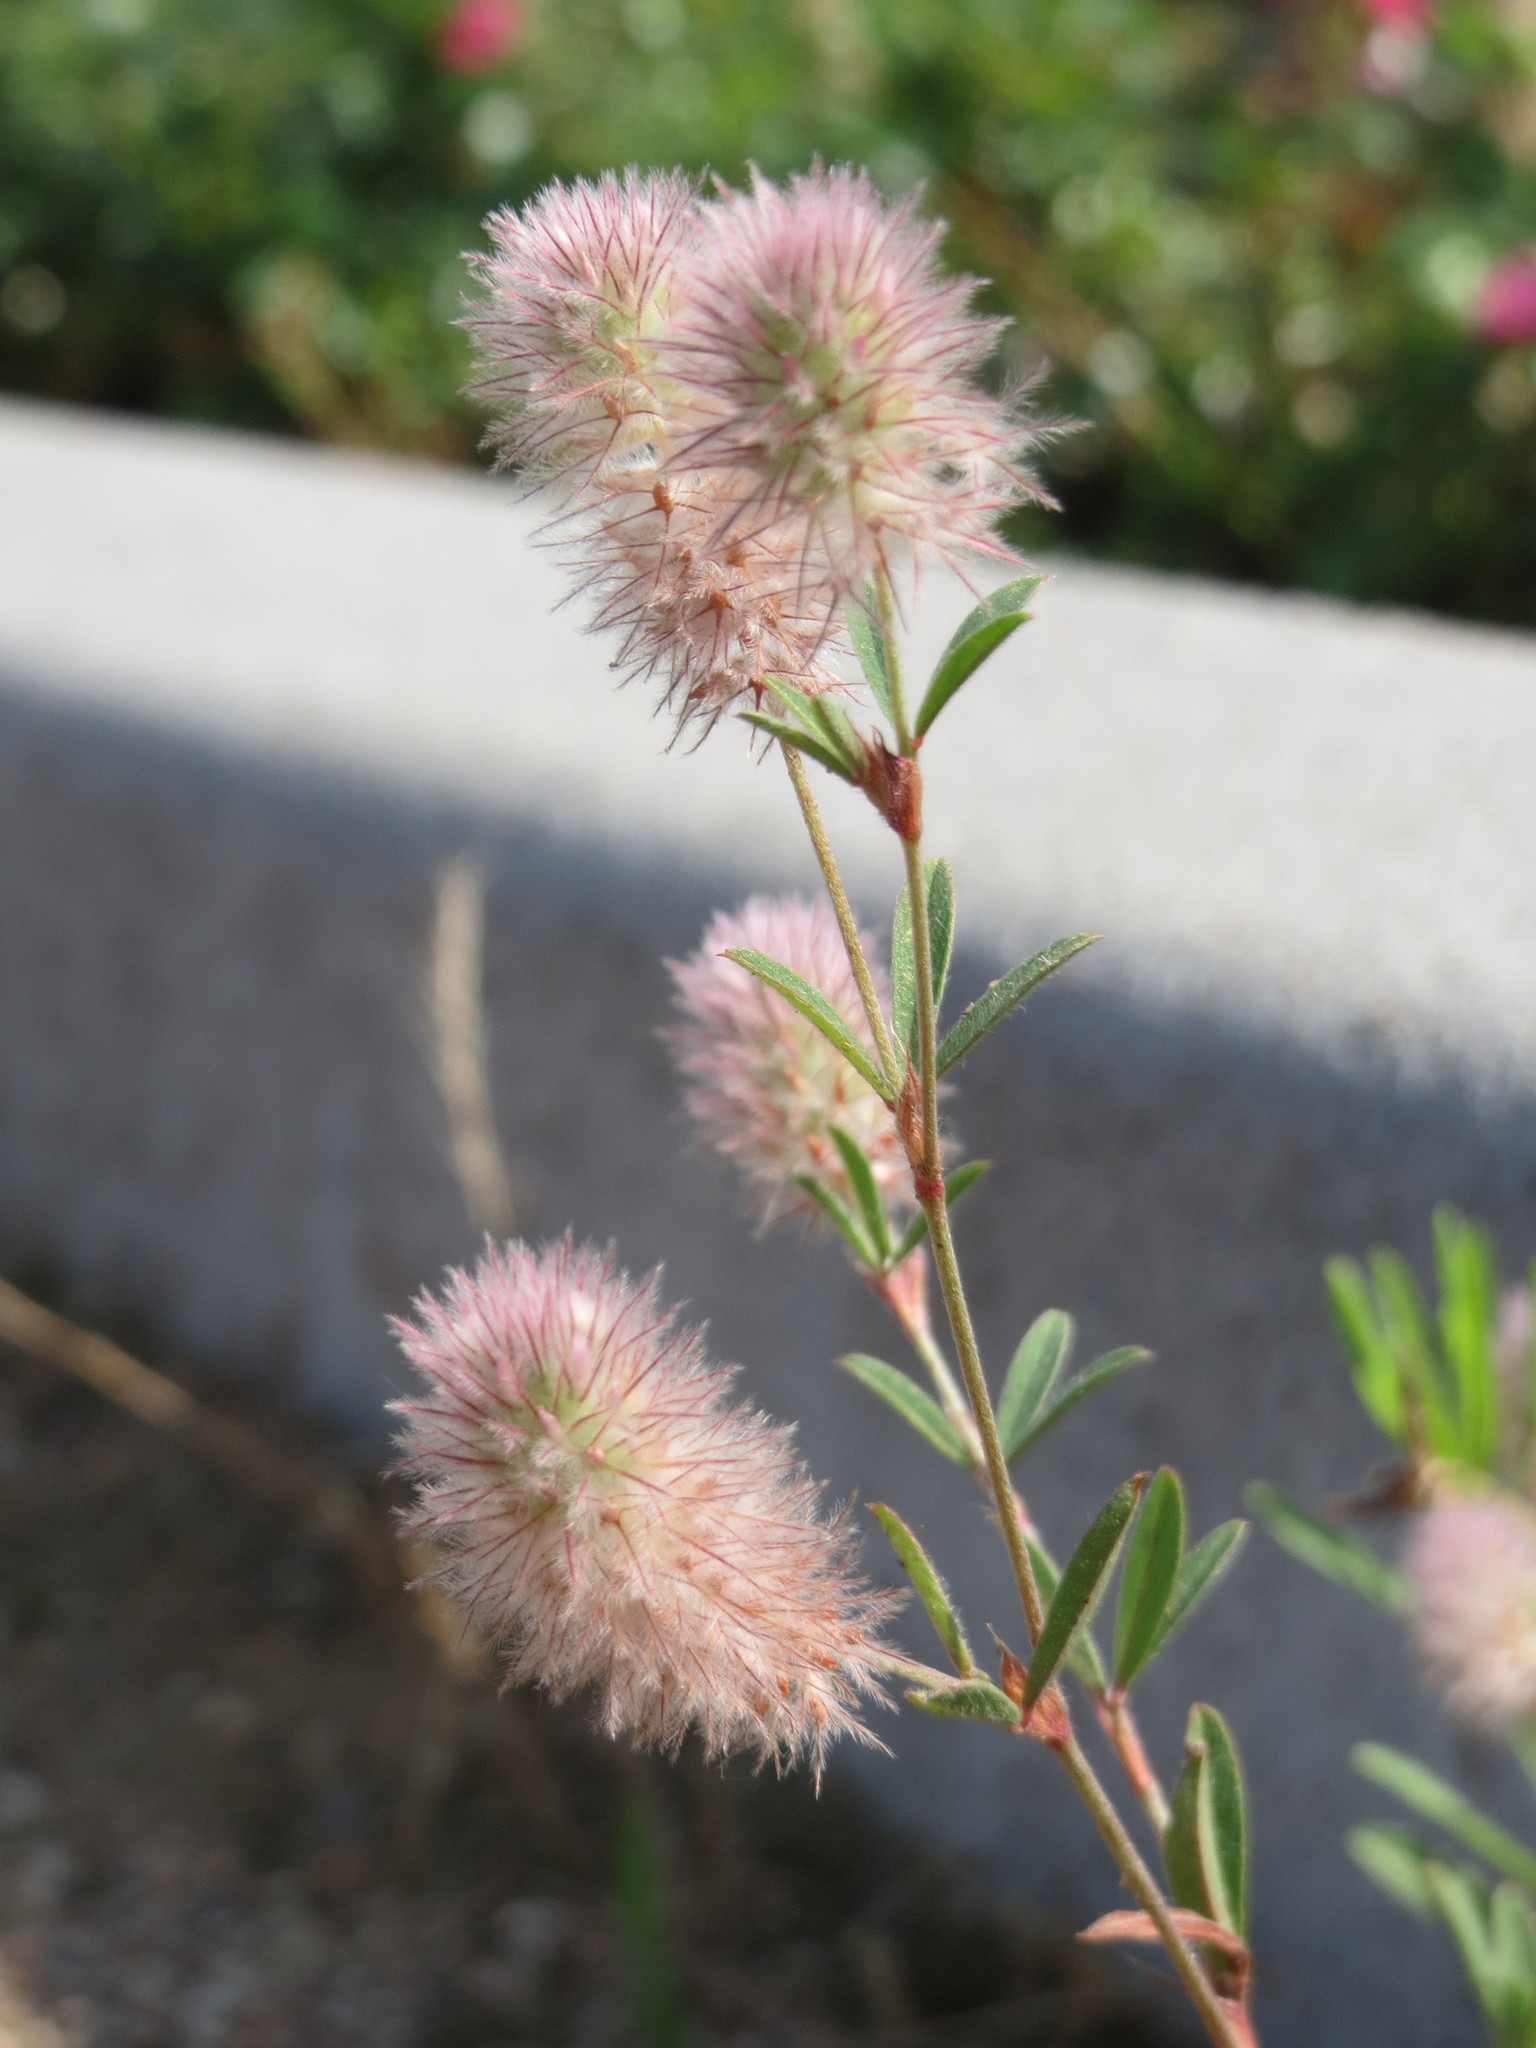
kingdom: Plantae
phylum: Tracheophyta
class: Magnoliopsida
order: Fabales
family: Fabaceae
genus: Trifolium
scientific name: Trifolium arvense
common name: Hare's-foot clover
